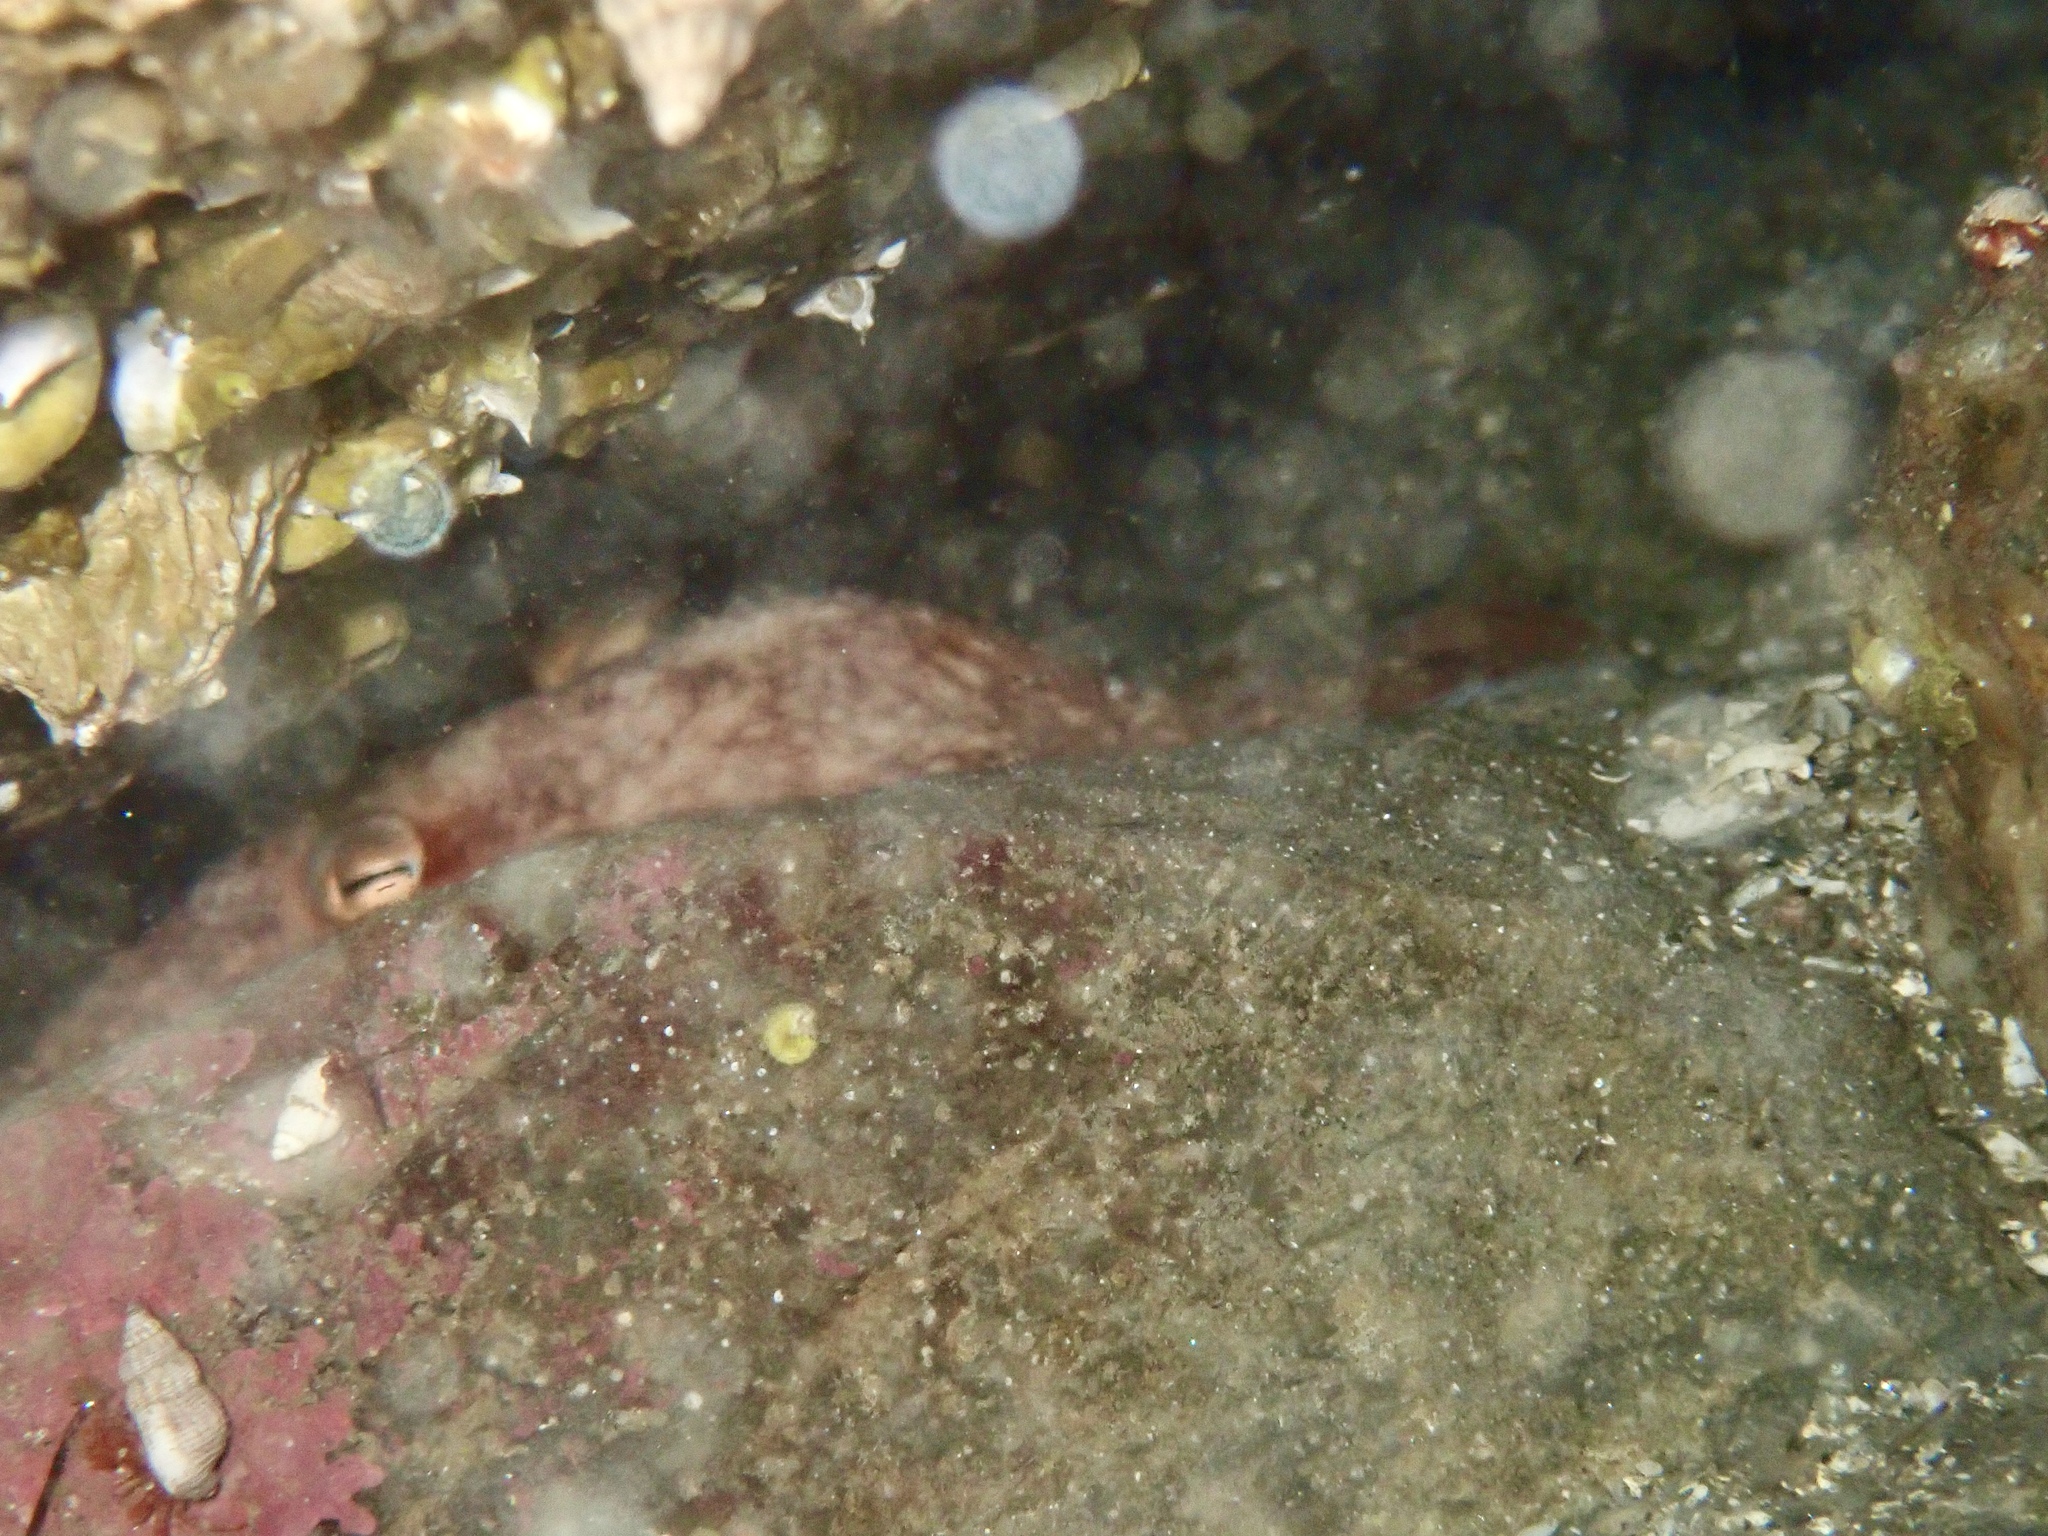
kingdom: Animalia
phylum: Mollusca
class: Cephalopoda
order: Octopoda
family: Eledonidae
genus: Eledone
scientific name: Eledone cirrhosa
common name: Curled octopus
